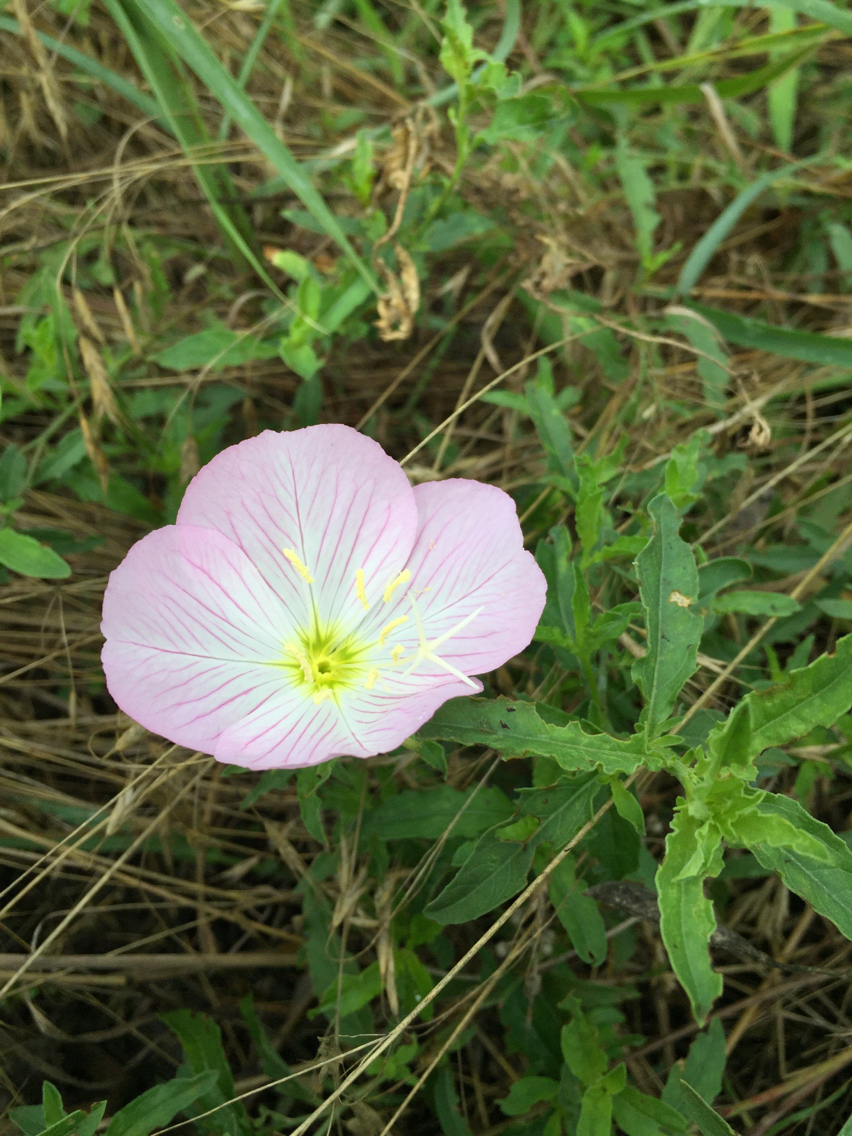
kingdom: Plantae
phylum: Tracheophyta
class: Magnoliopsida
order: Myrtales
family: Onagraceae
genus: Oenothera
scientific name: Oenothera speciosa
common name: White evening-primrose
